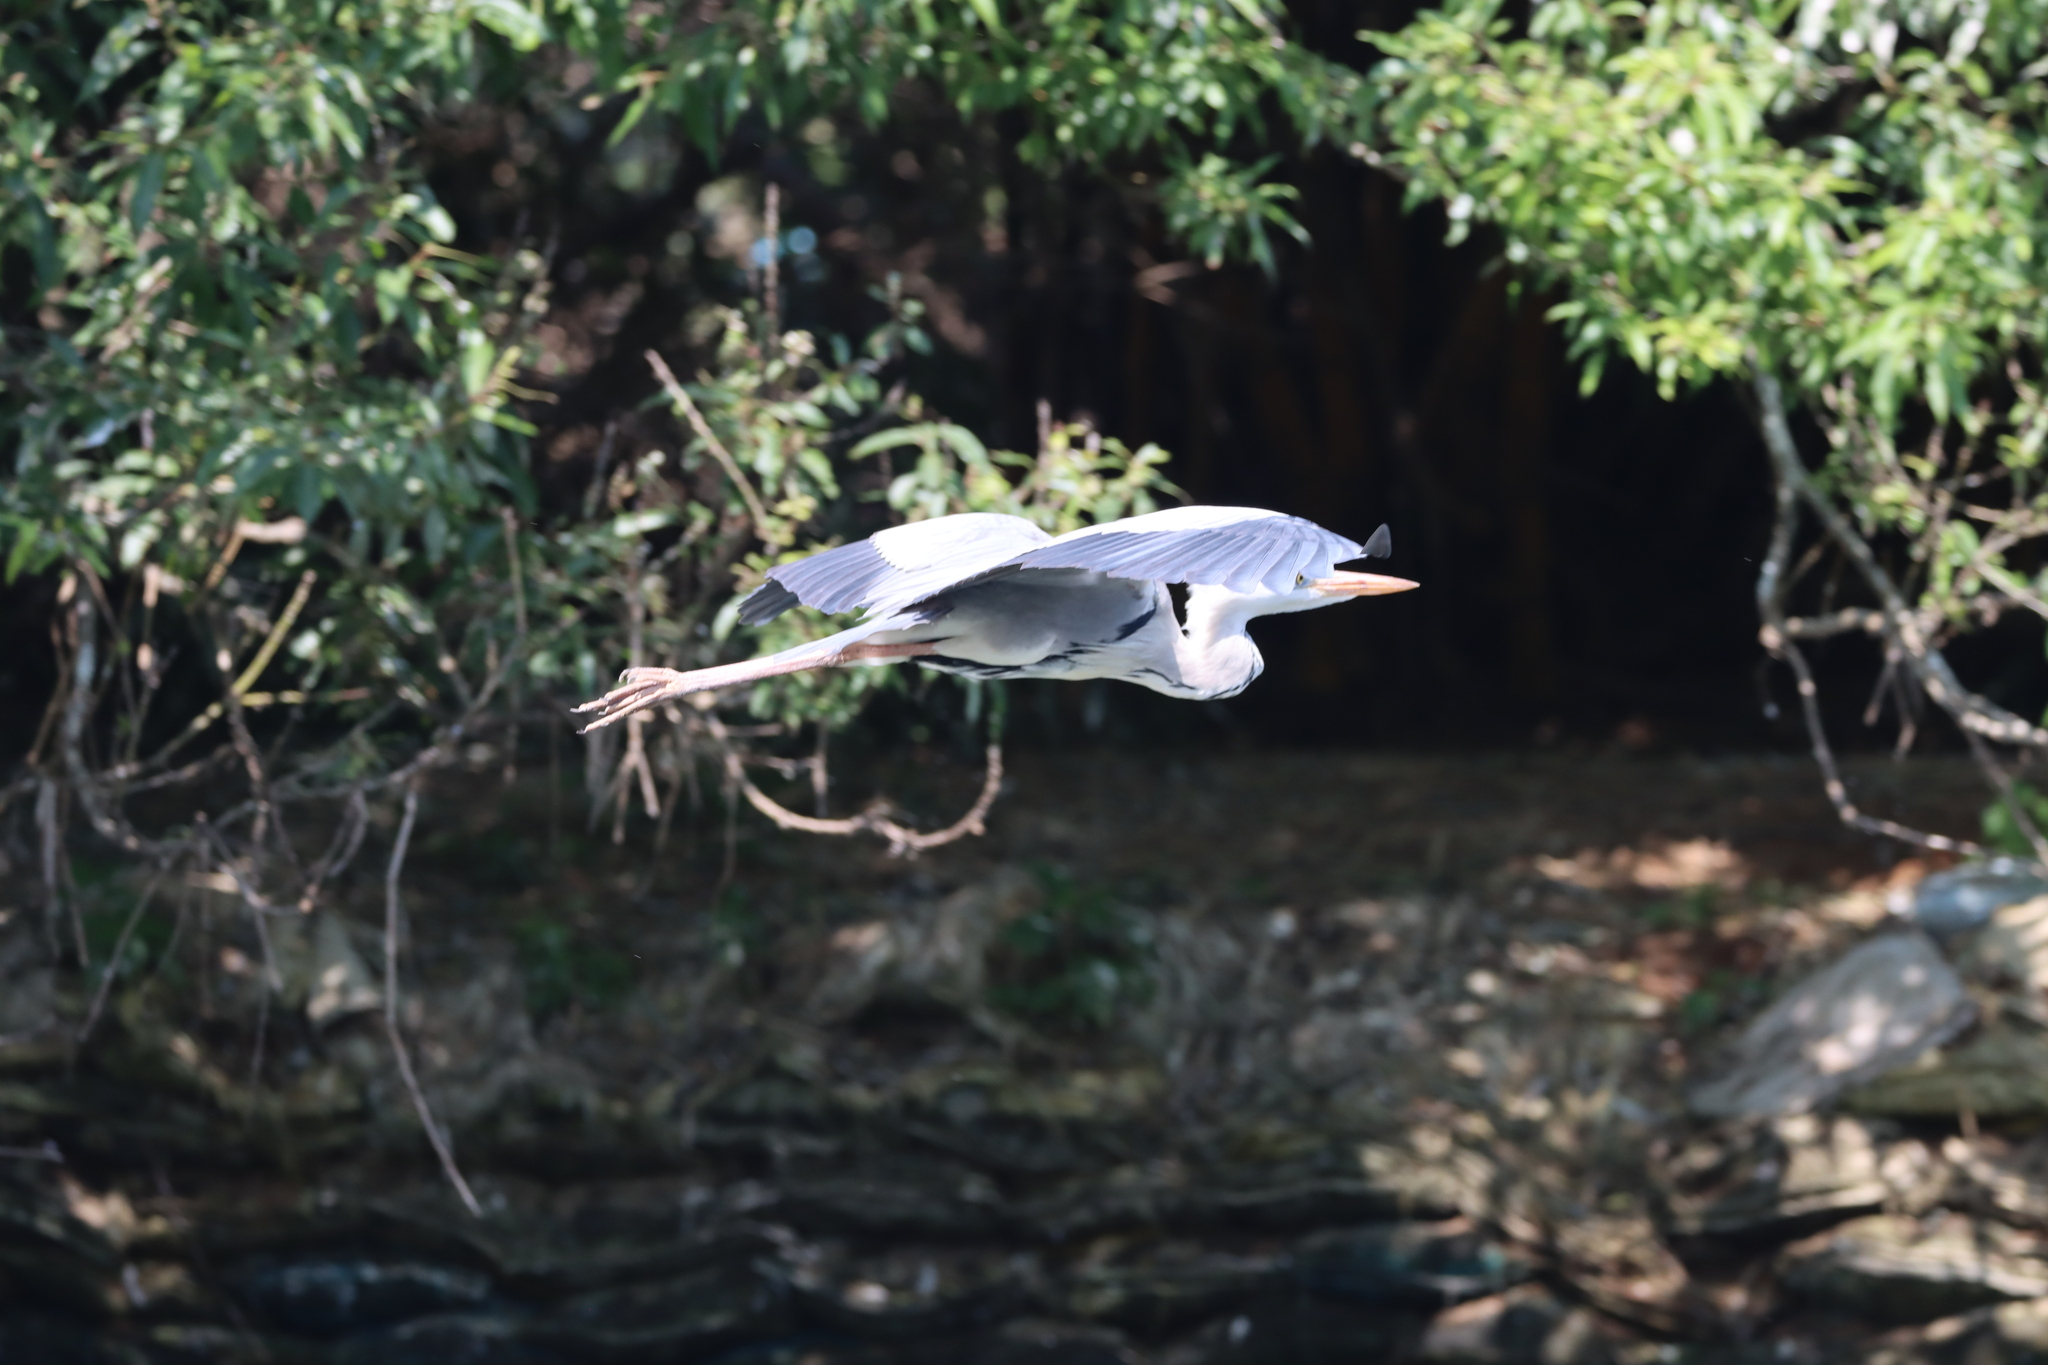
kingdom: Animalia
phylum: Chordata
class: Aves
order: Pelecaniformes
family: Ardeidae
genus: Ardea
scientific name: Ardea cinerea
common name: Grey heron
